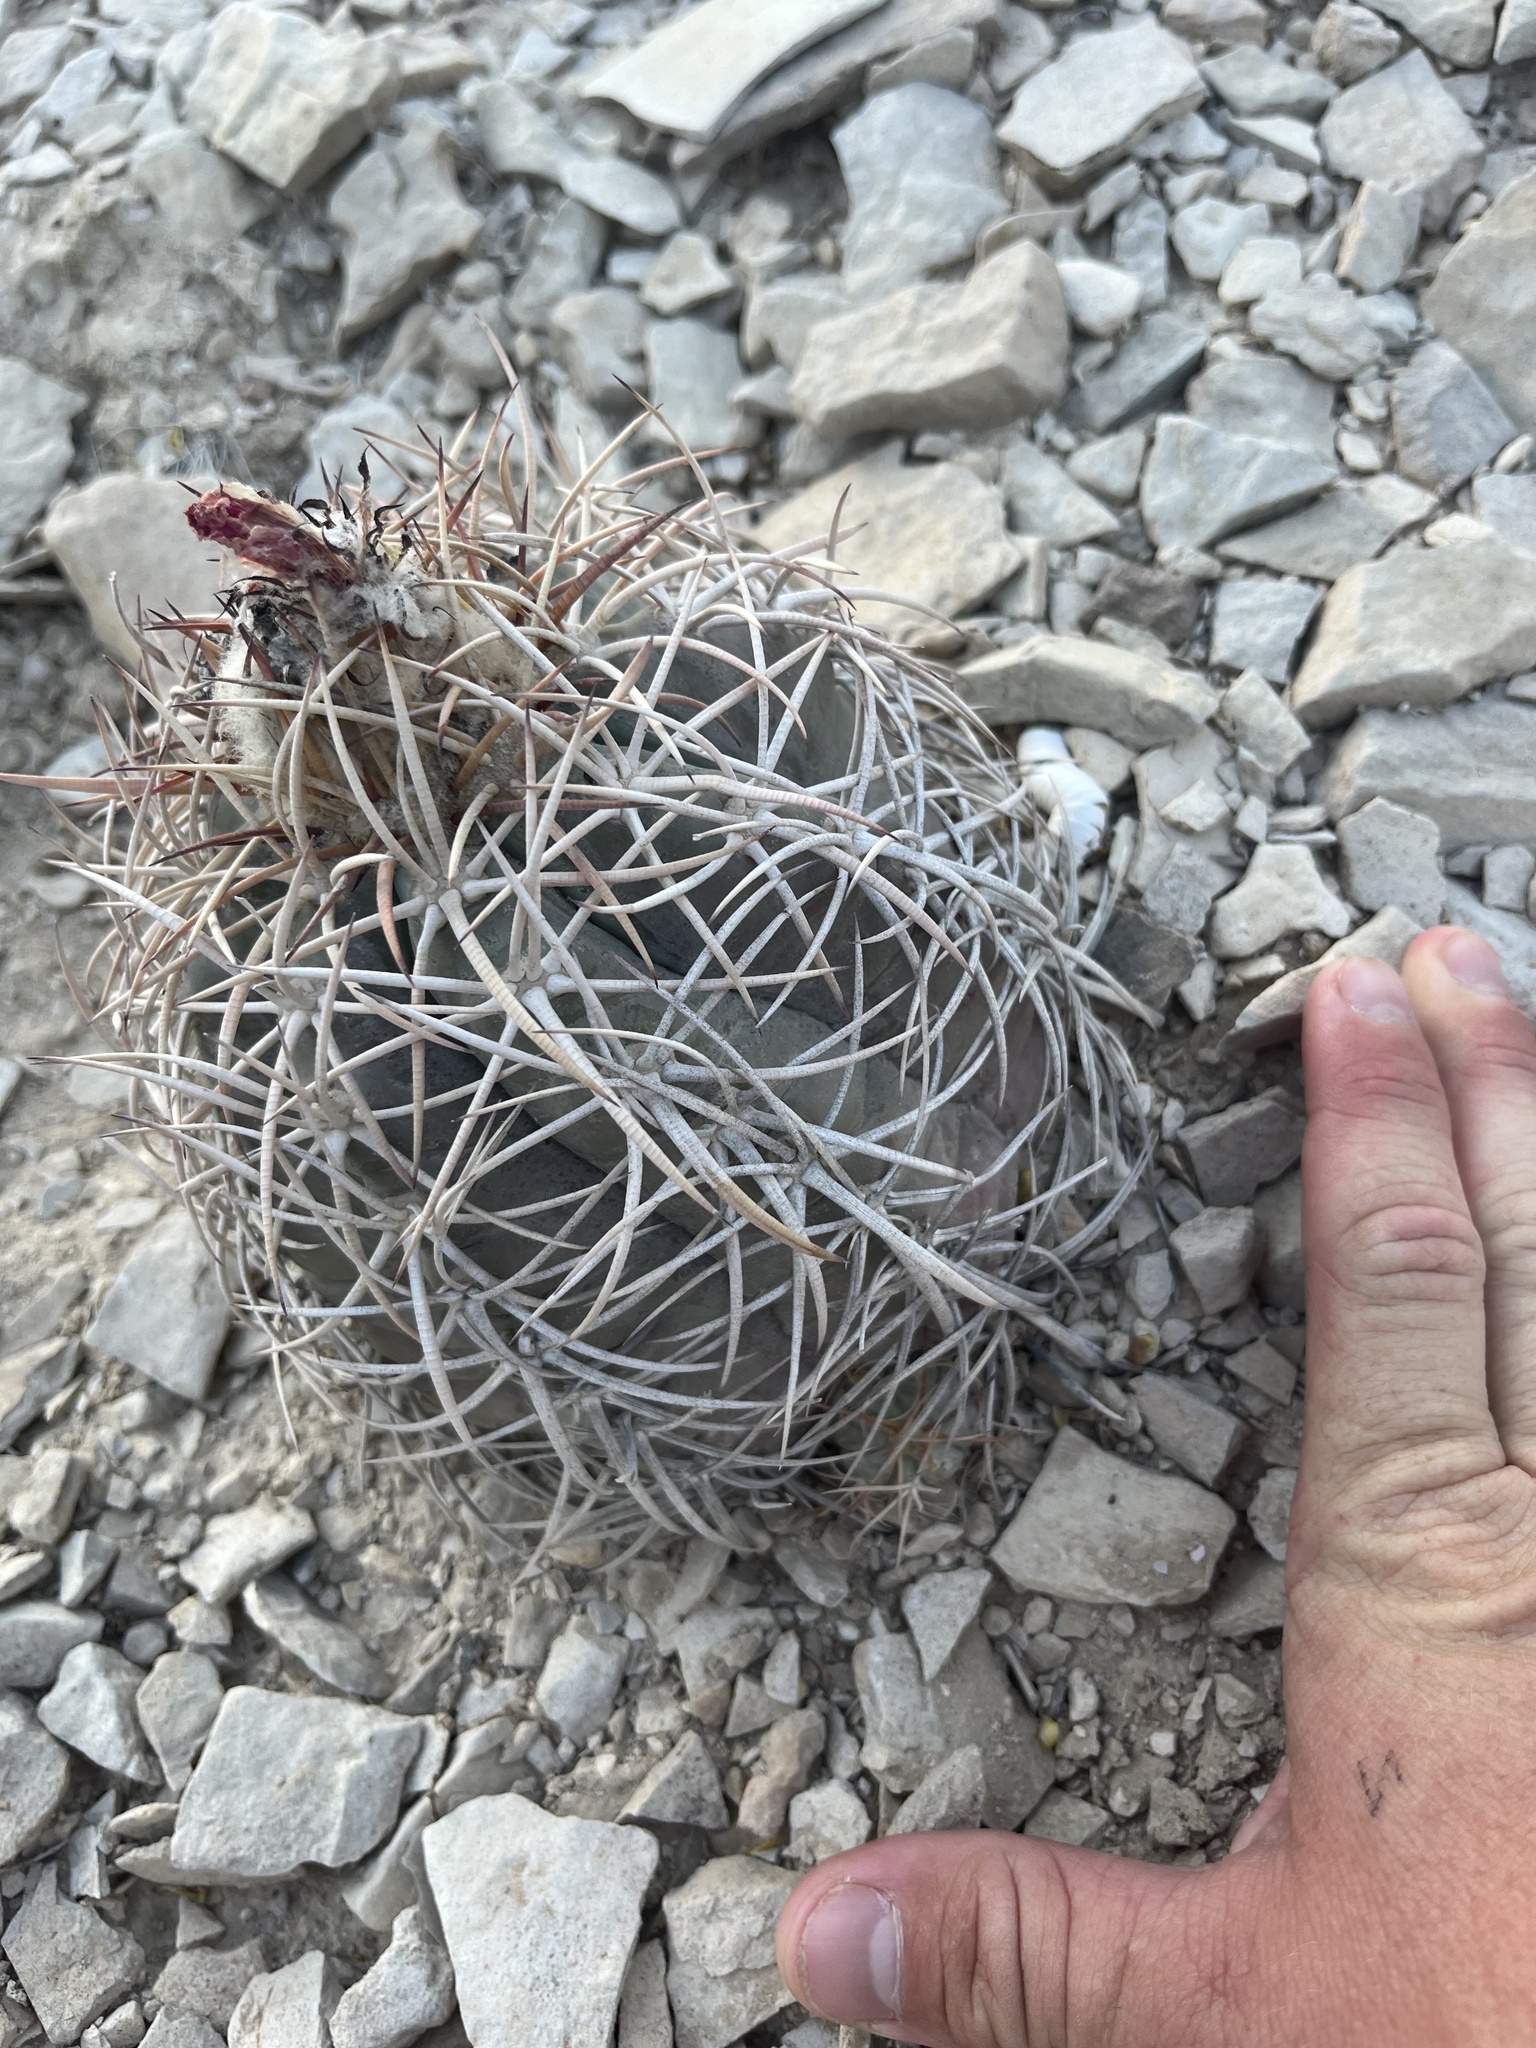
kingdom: Plantae
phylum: Tracheophyta
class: Magnoliopsida
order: Caryophyllales
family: Cactaceae
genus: Echinocactus
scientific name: Echinocactus horizonthalonius
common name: Devilshead
